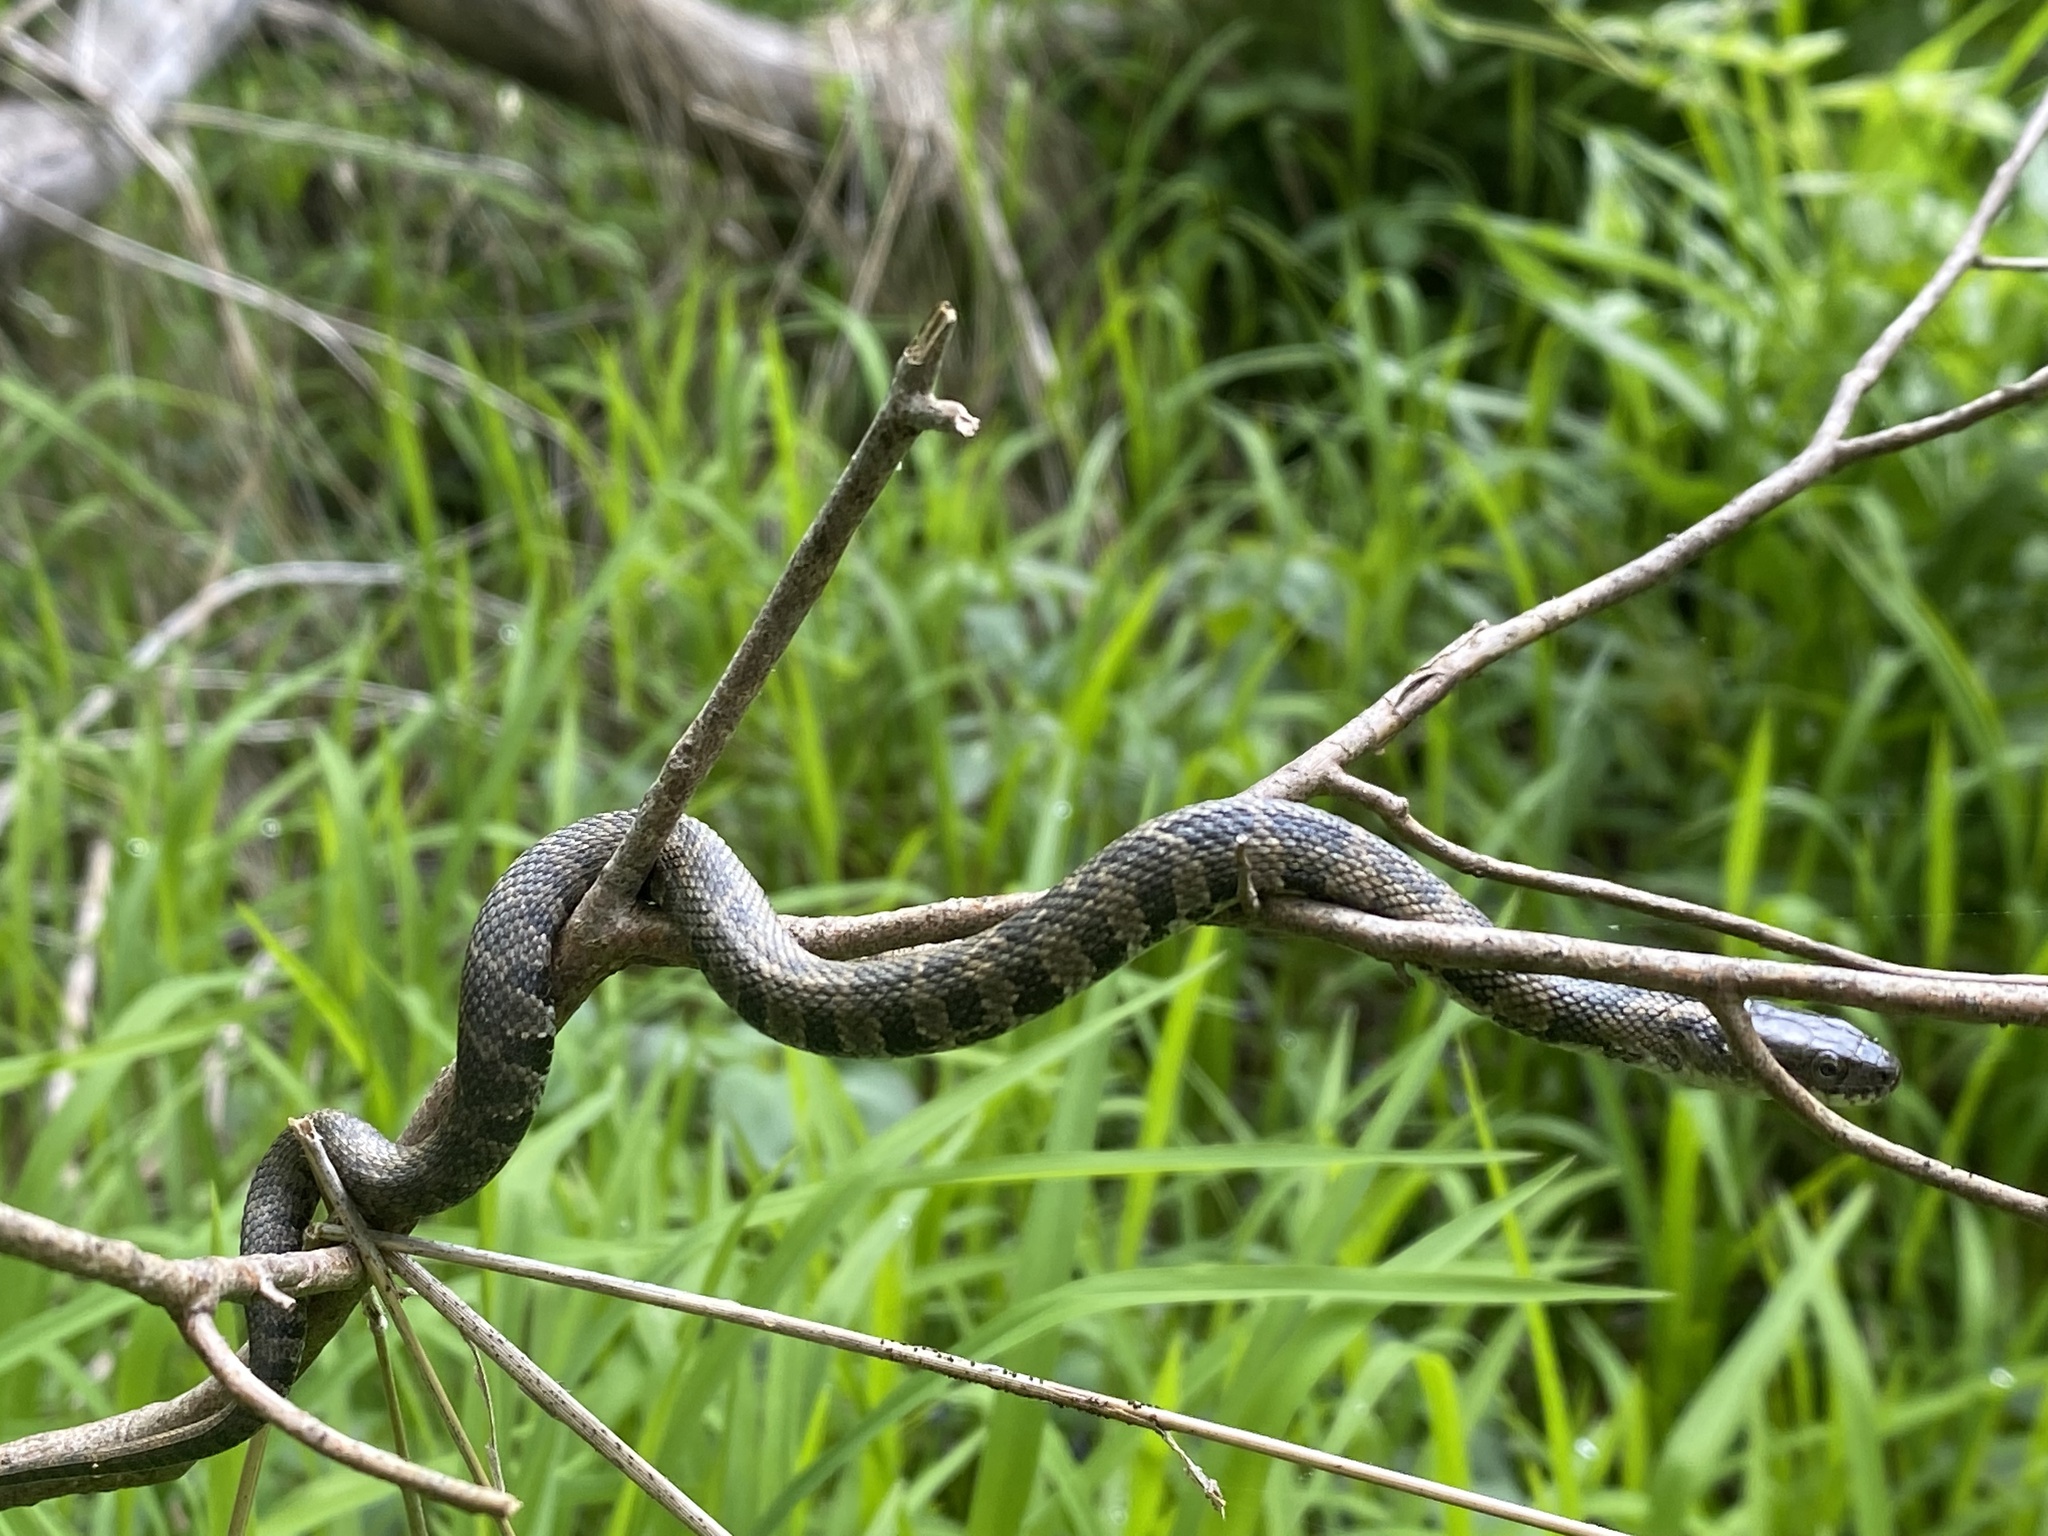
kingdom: Animalia
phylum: Chordata
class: Squamata
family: Colubridae
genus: Nerodia
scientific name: Nerodia sipedon
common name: Northern water snake
